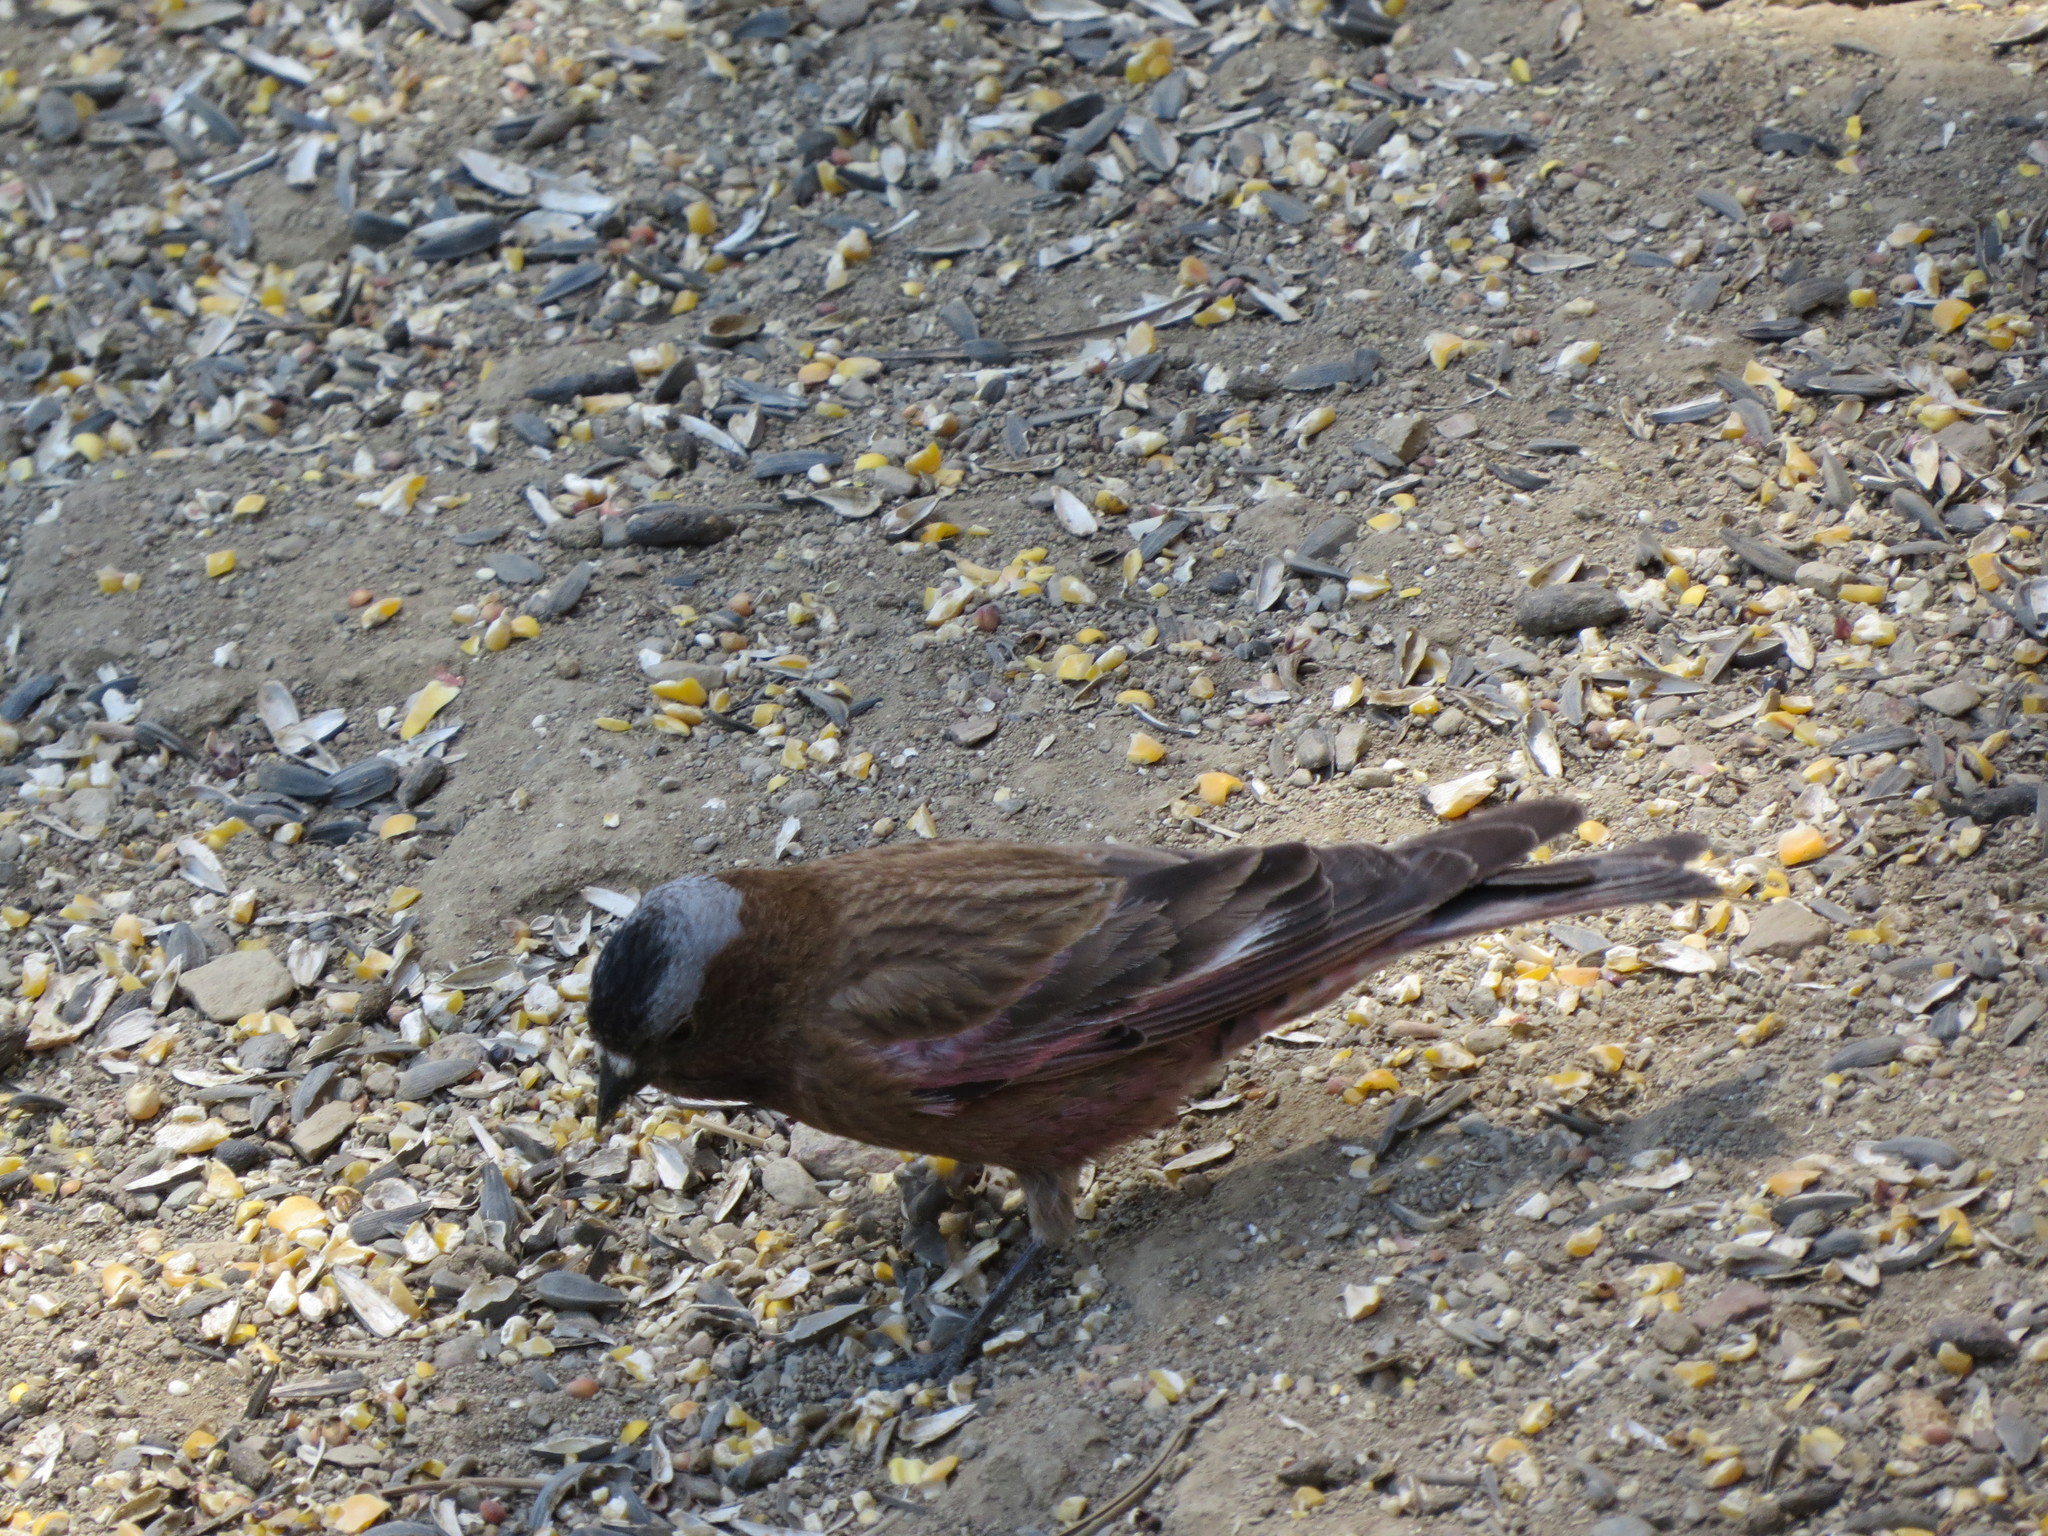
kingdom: Animalia
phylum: Chordata
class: Aves
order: Passeriformes
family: Fringillidae
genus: Leucosticte
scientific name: Leucosticte tephrocotis
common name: Gray-crowned rosy-finch
